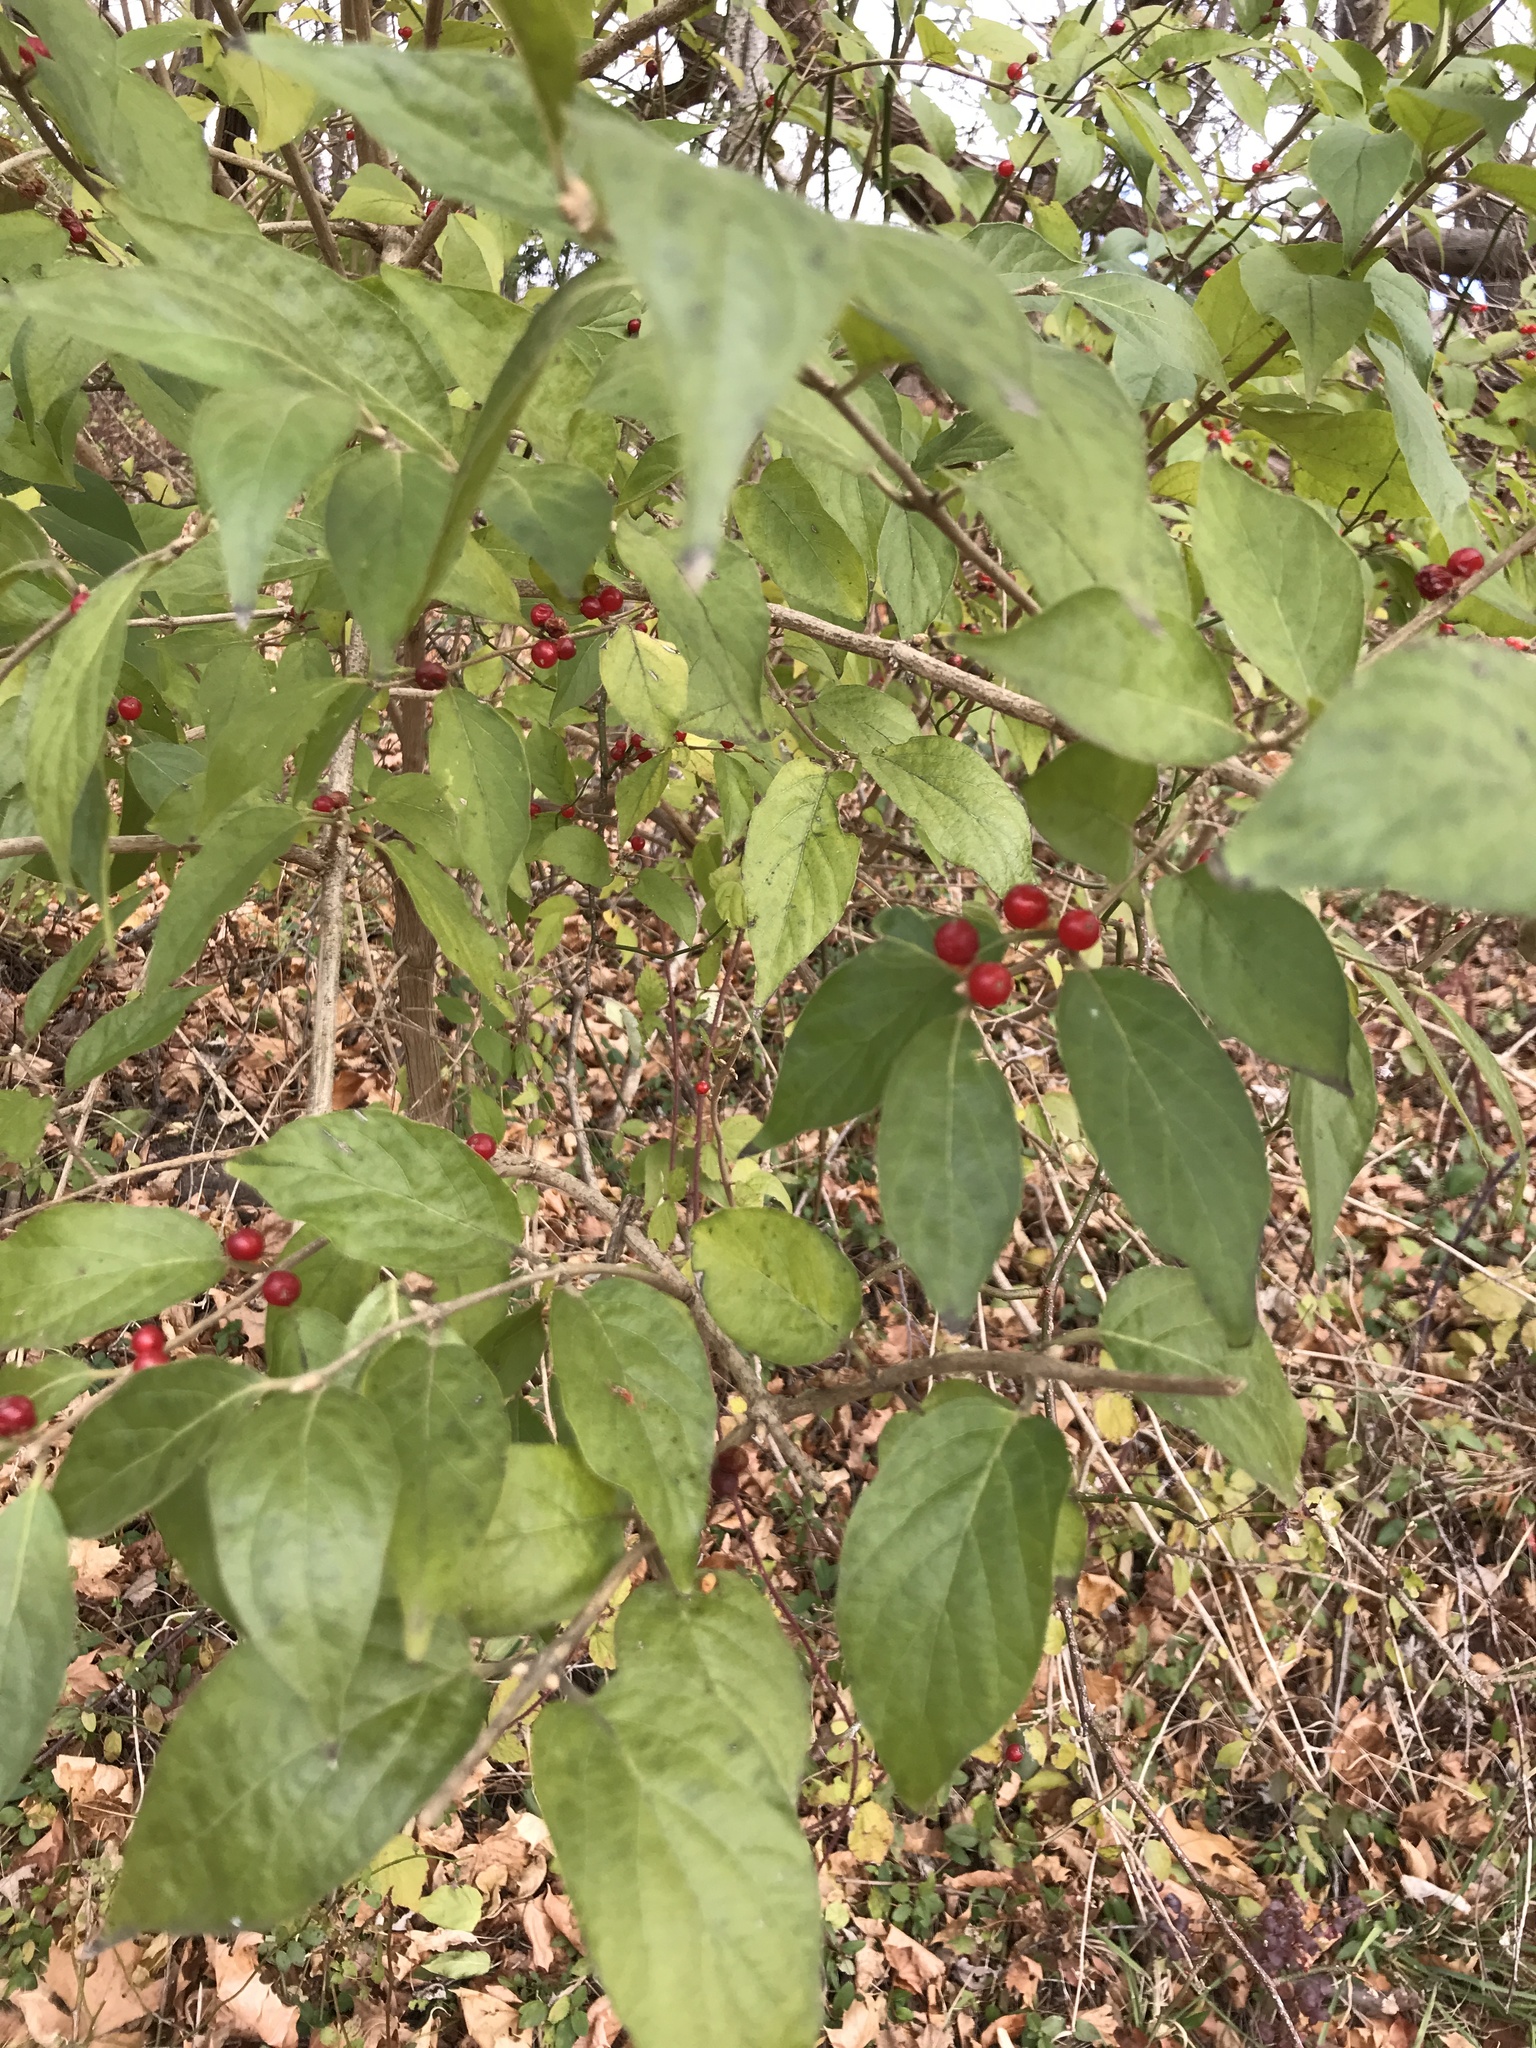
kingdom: Plantae
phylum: Tracheophyta
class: Magnoliopsida
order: Dipsacales
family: Caprifoliaceae
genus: Lonicera
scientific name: Lonicera maackii
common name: Amur honeysuckle
